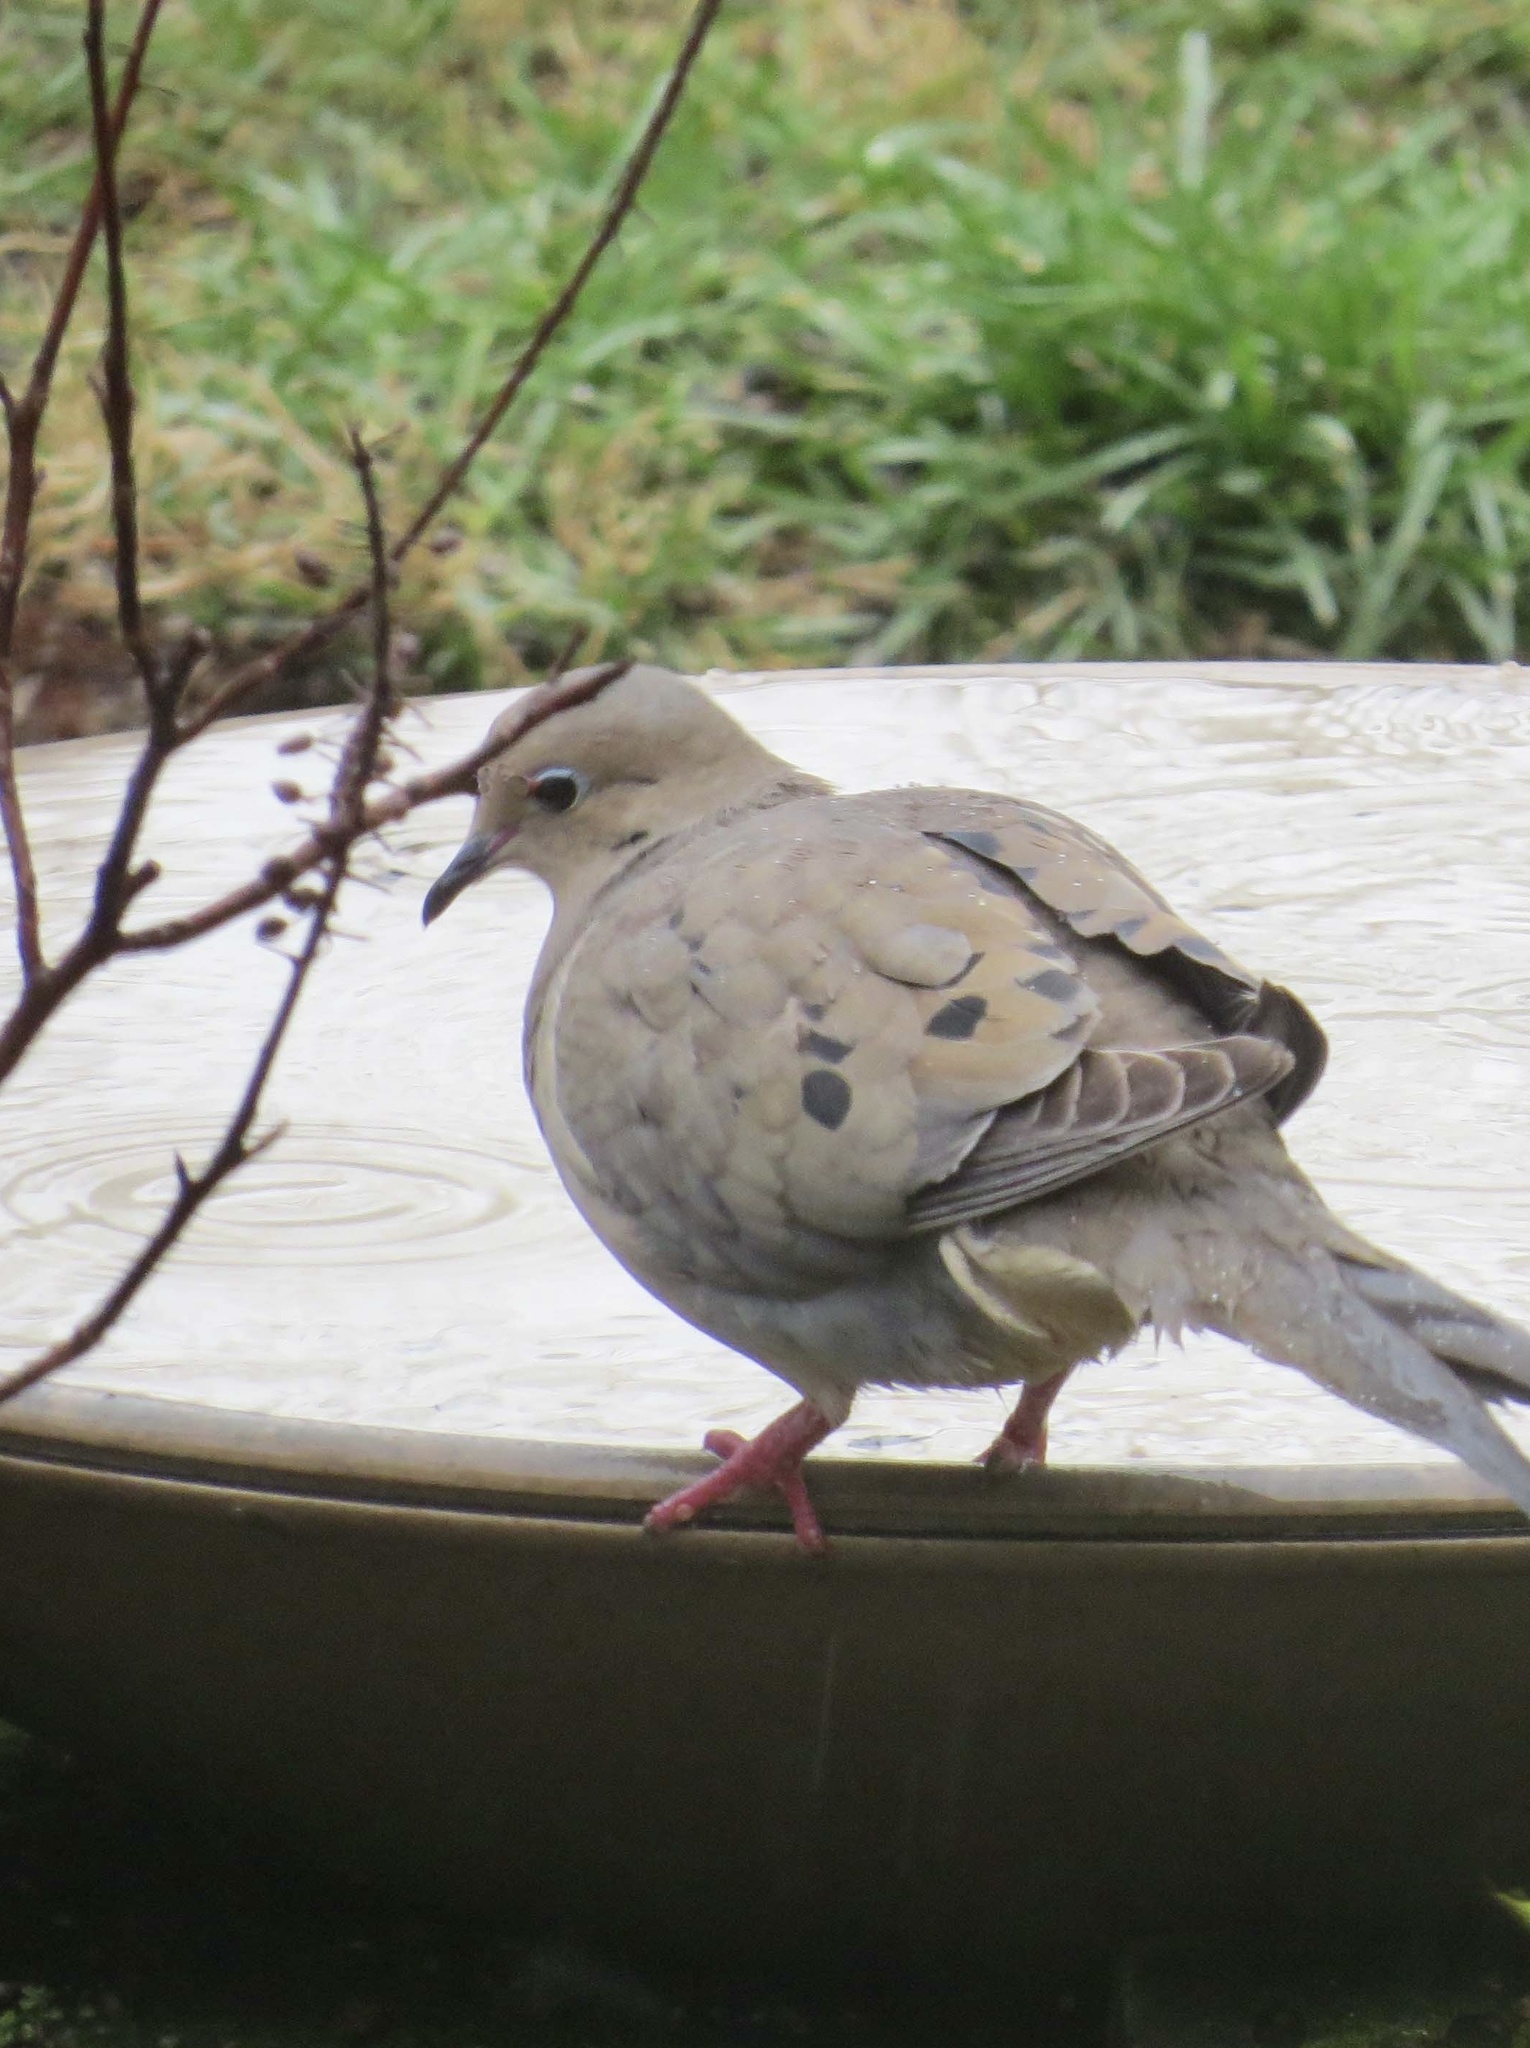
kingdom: Animalia
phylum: Chordata
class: Aves
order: Columbiformes
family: Columbidae
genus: Zenaida
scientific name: Zenaida macroura
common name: Mourning dove
